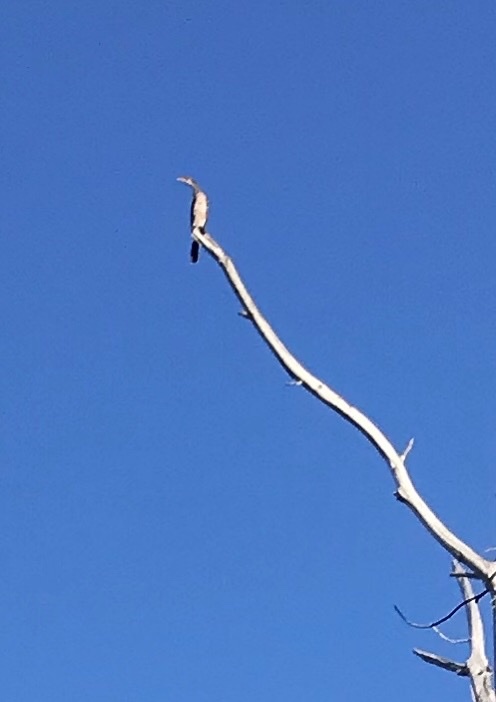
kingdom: Animalia
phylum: Chordata
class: Aves
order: Suliformes
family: Phalacrocoracidae
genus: Microcarbo
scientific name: Microcarbo africanus
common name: Long-tailed cormorant
